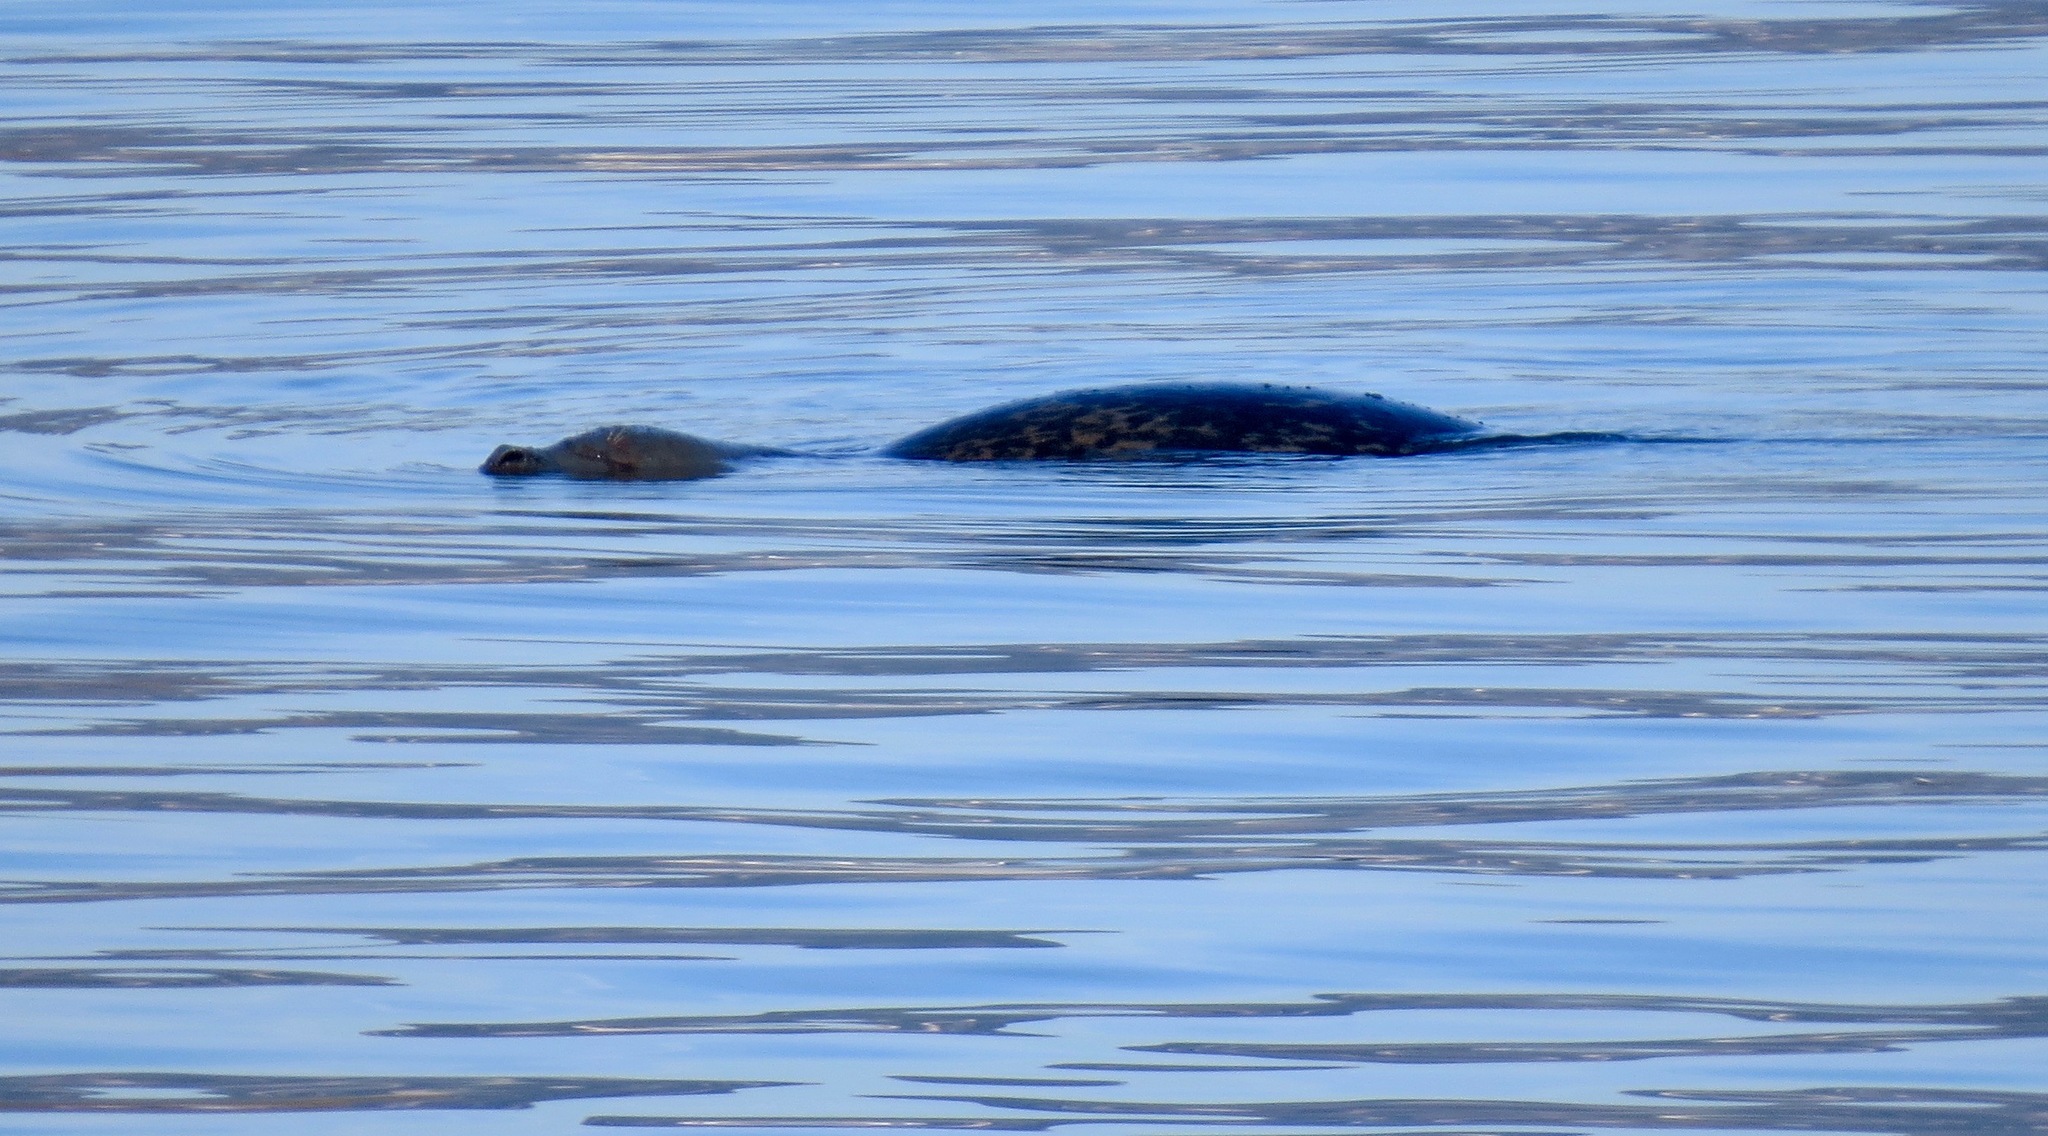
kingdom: Animalia
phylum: Chordata
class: Mammalia
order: Carnivora
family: Phocidae
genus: Phoca
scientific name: Phoca vitulina
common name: Harbor seal
